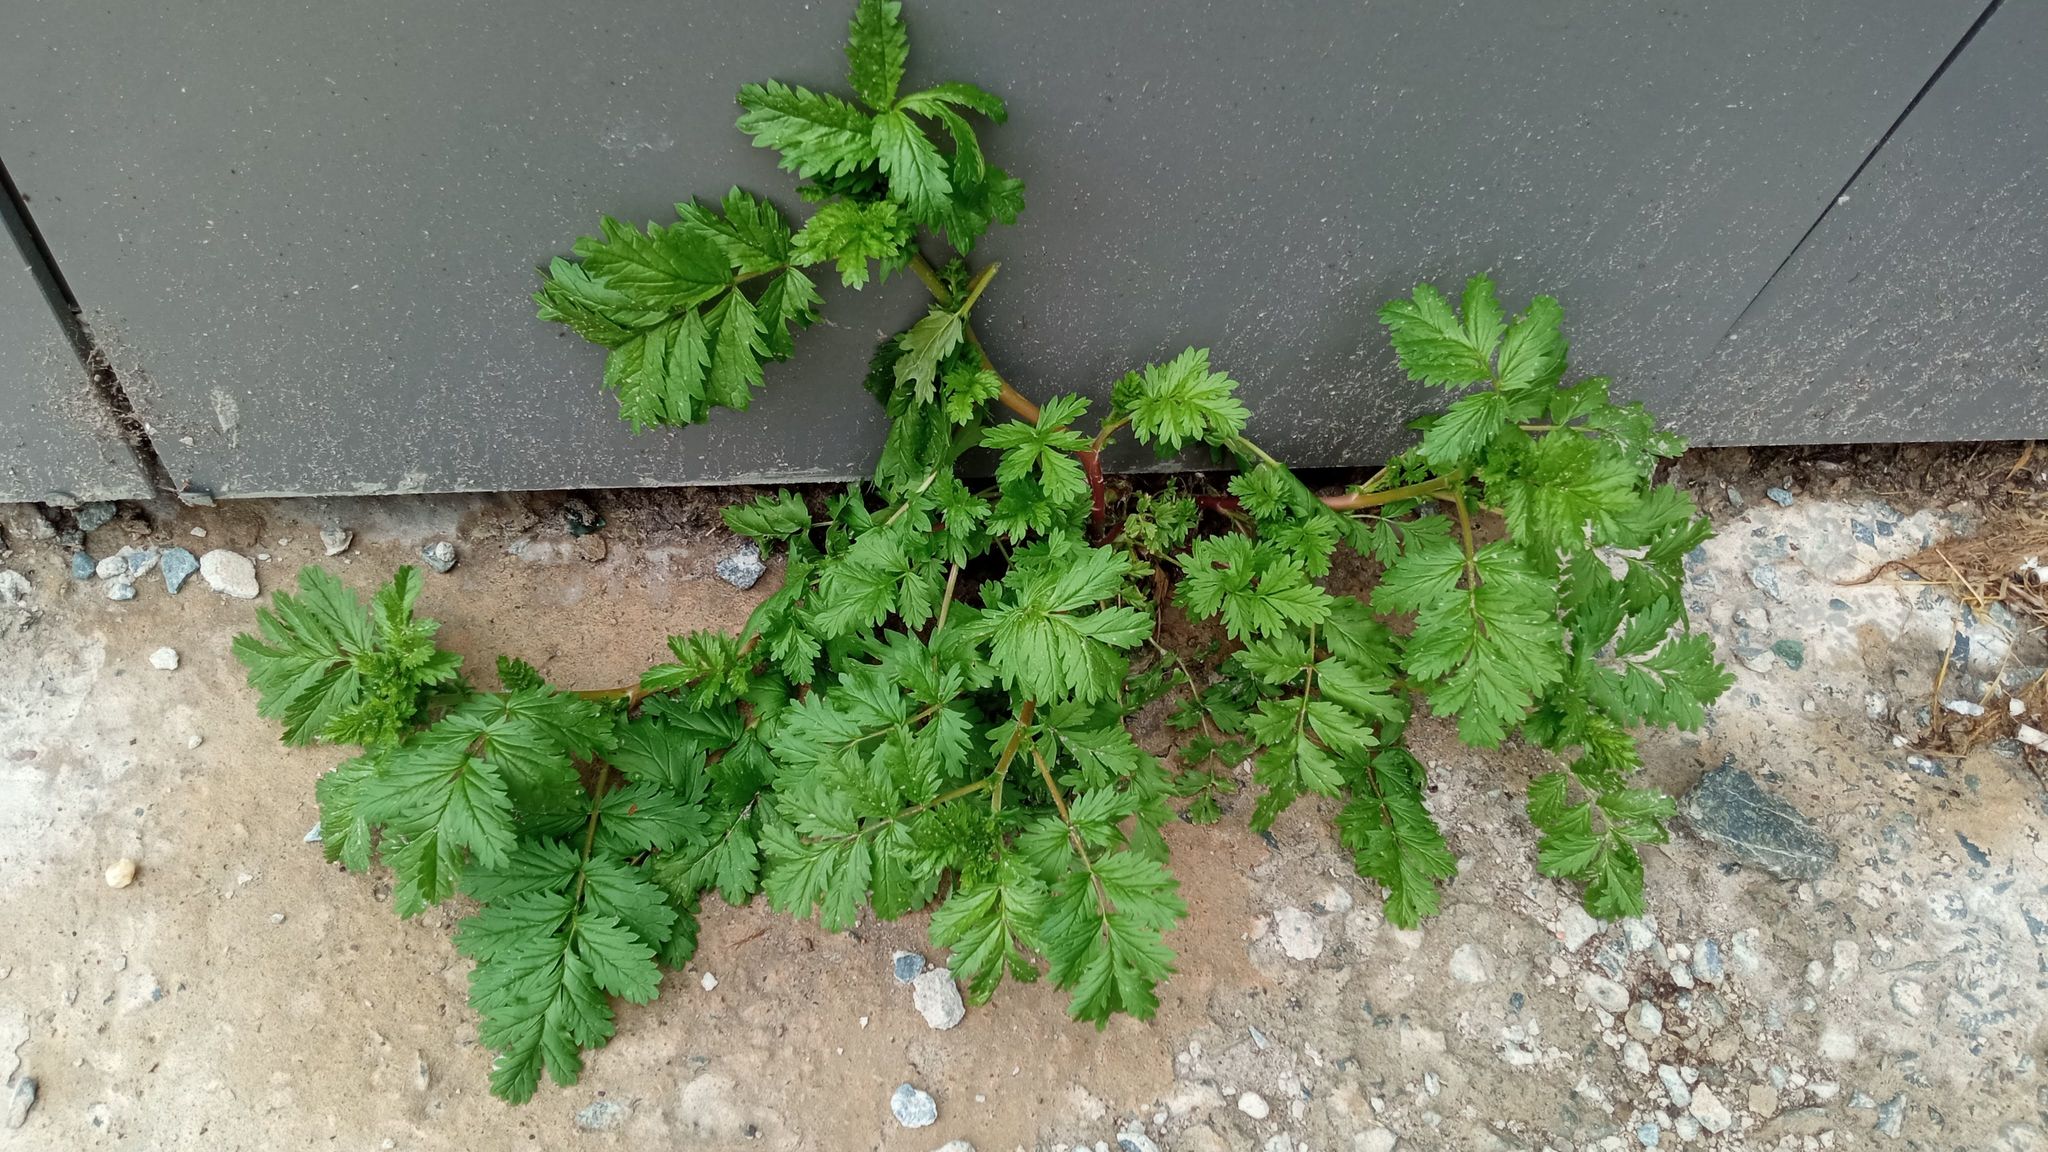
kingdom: Plantae
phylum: Tracheophyta
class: Magnoliopsida
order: Rosales
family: Rosaceae
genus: Potentilla
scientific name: Potentilla supina
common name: Prostrate cinquefoil
